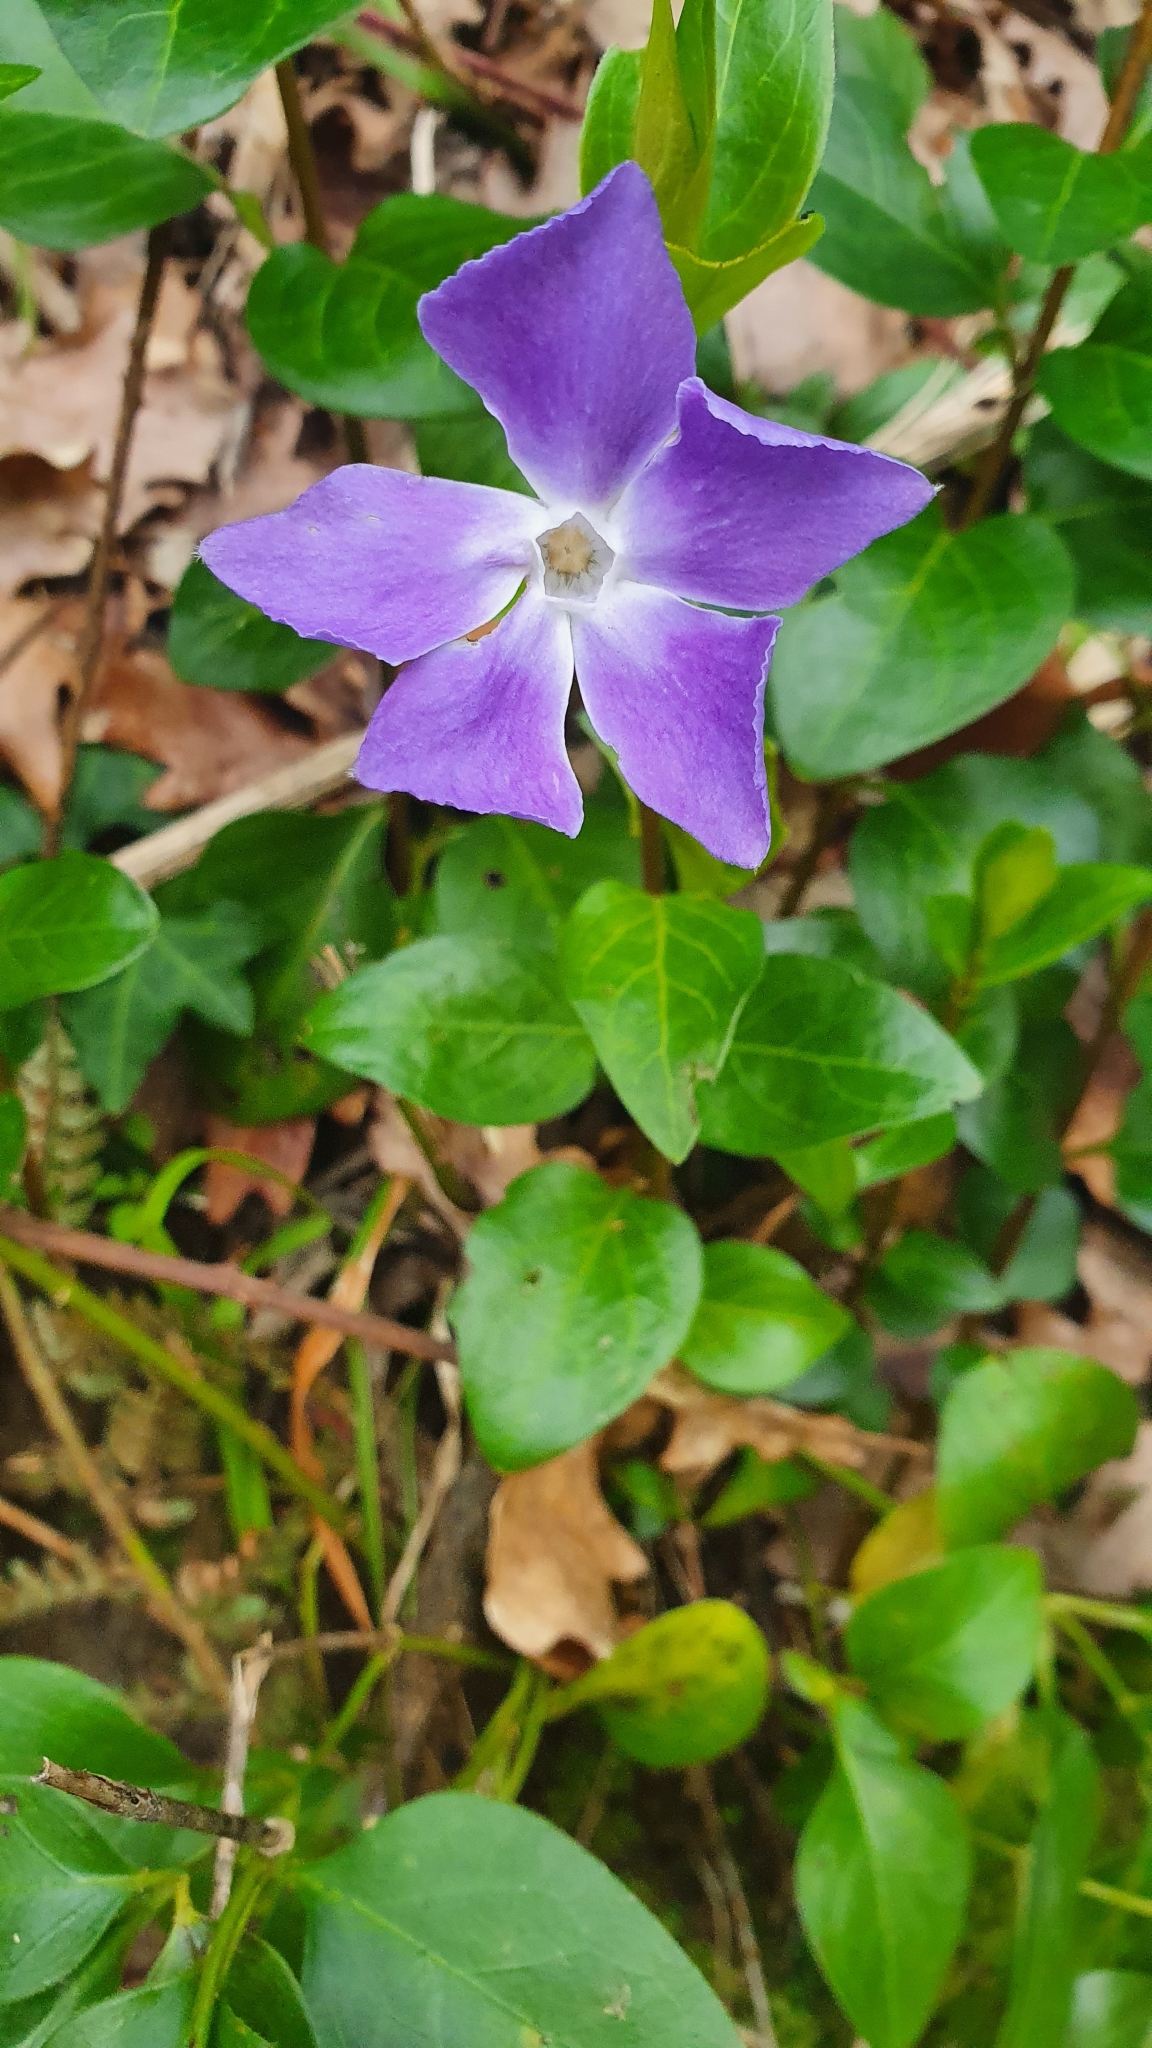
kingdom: Plantae
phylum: Tracheophyta
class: Magnoliopsida
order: Gentianales
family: Apocynaceae
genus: Vinca
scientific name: Vinca major
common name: Greater periwinkle
